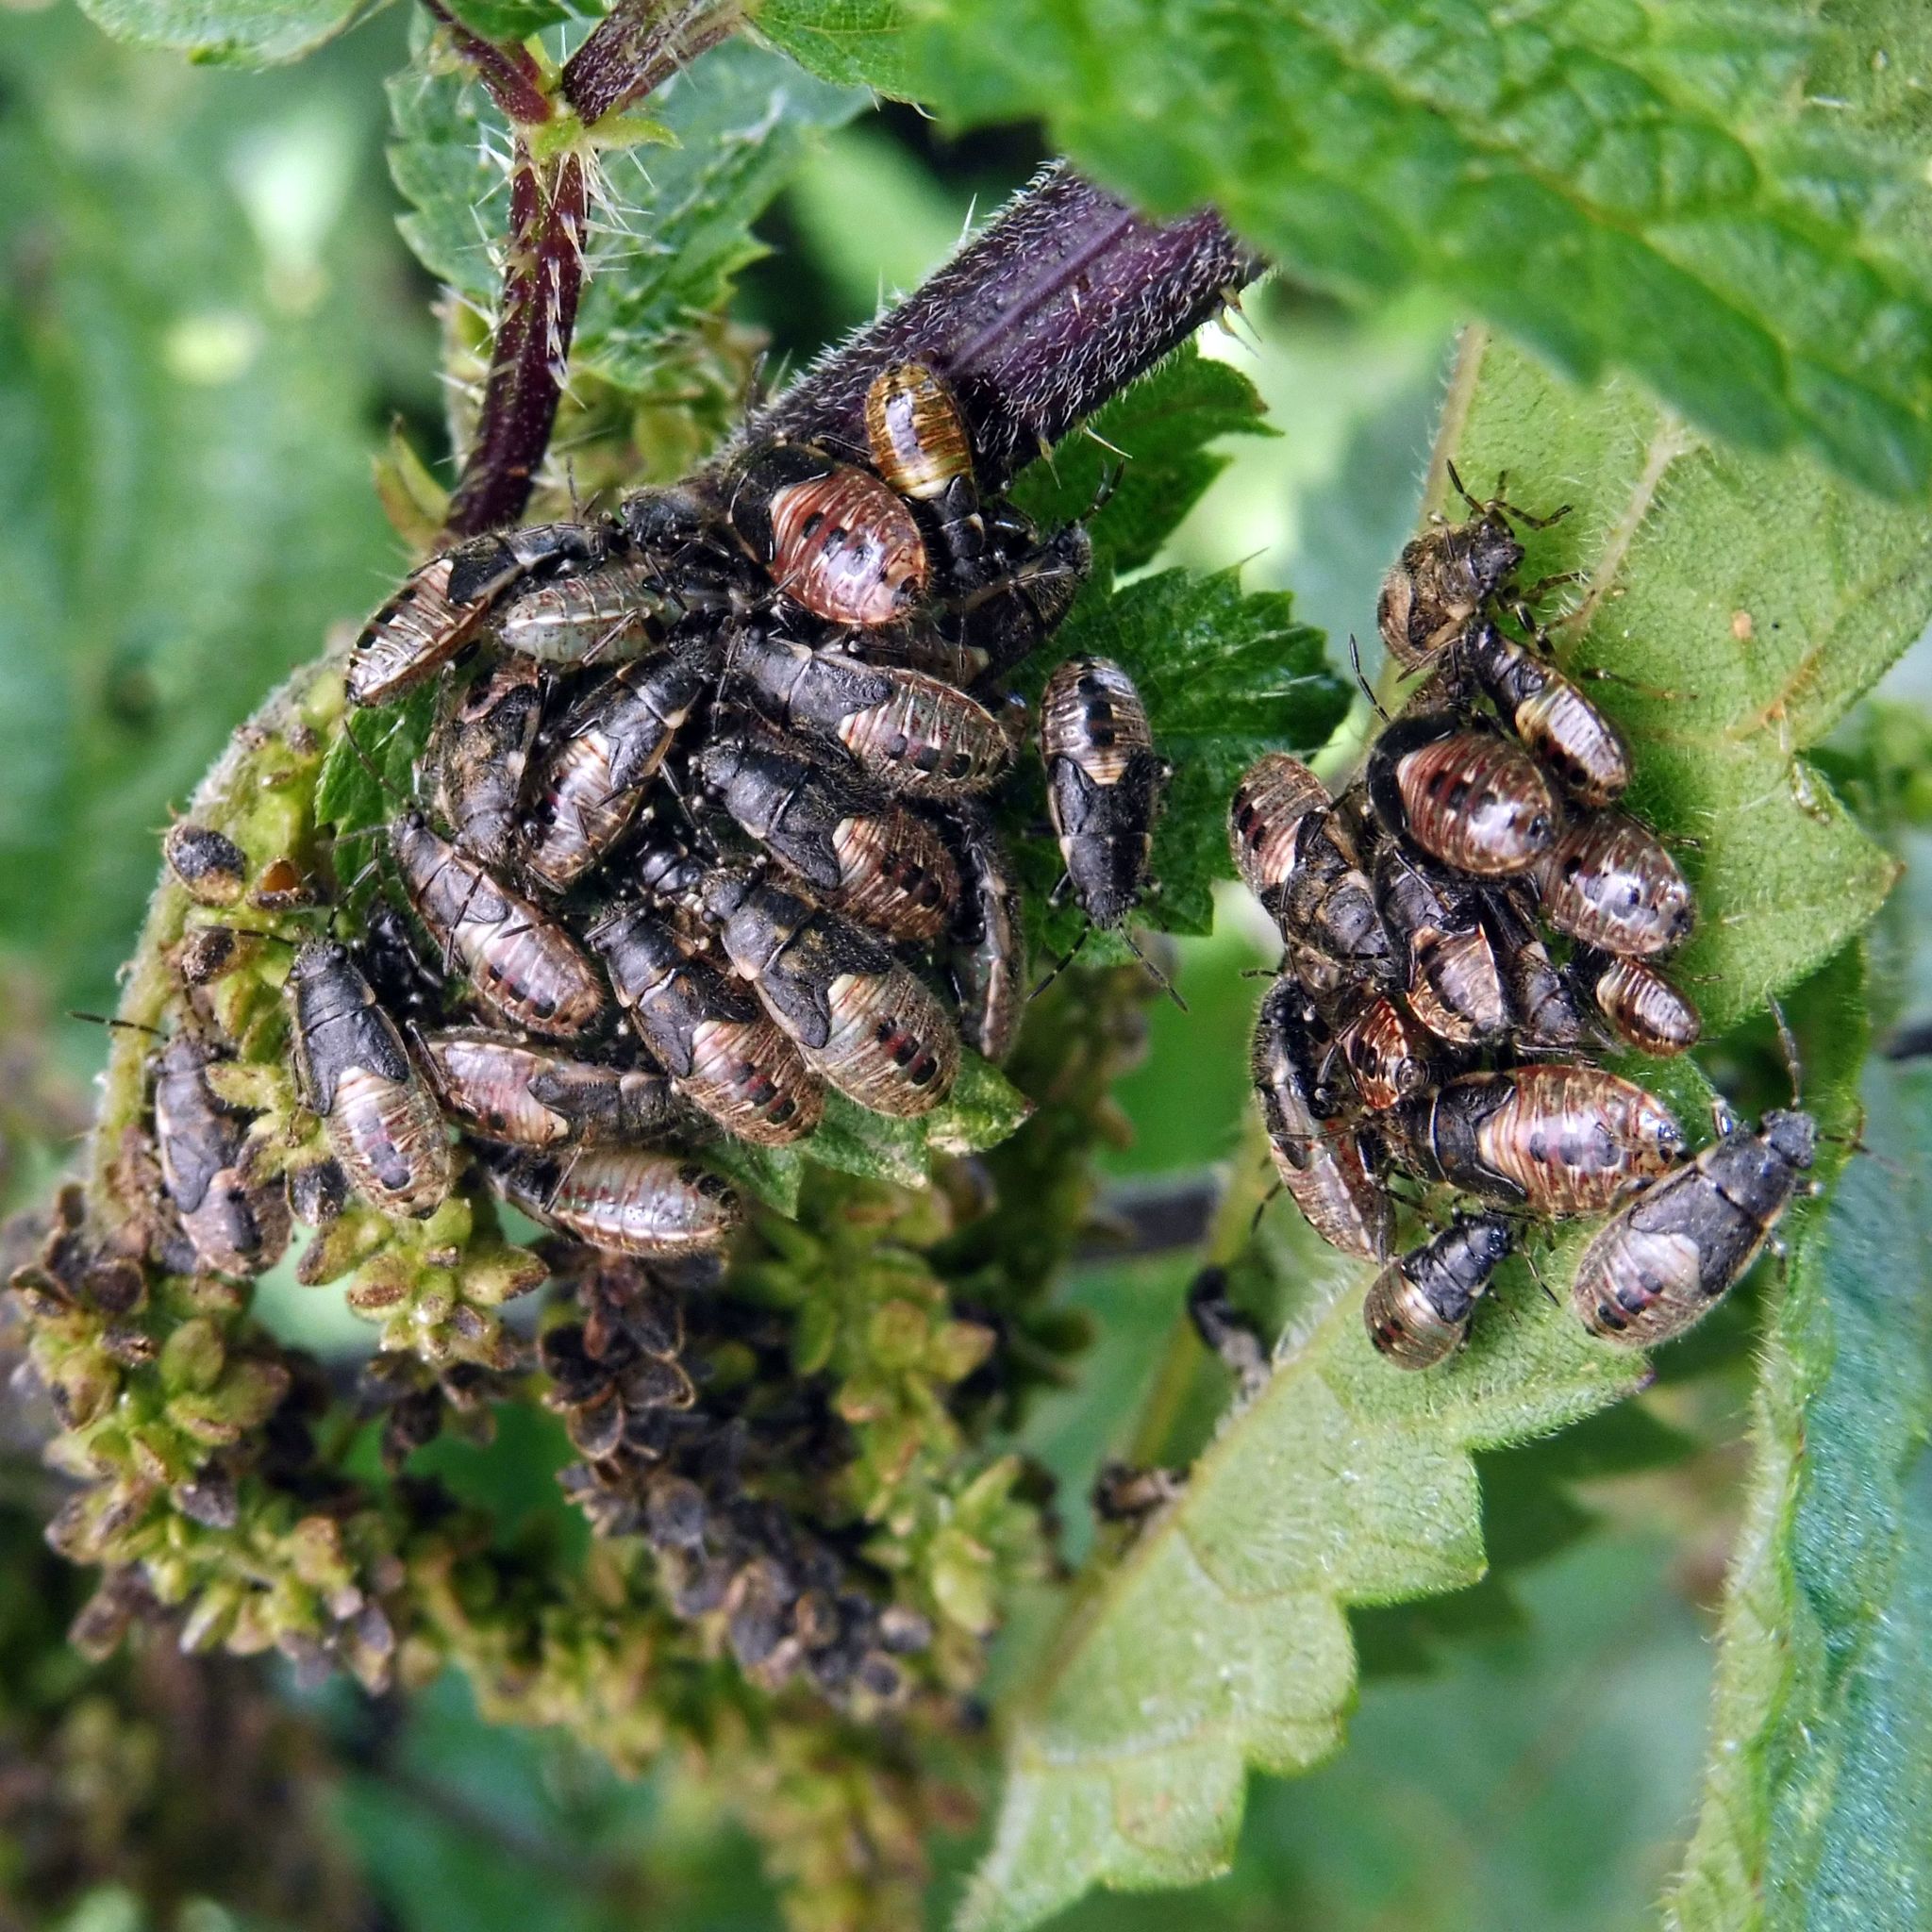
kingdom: Animalia
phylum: Arthropoda
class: Insecta
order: Hemiptera
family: Heterogastridae
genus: Heterogaster
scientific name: Heterogaster urticae
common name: Seed bug
